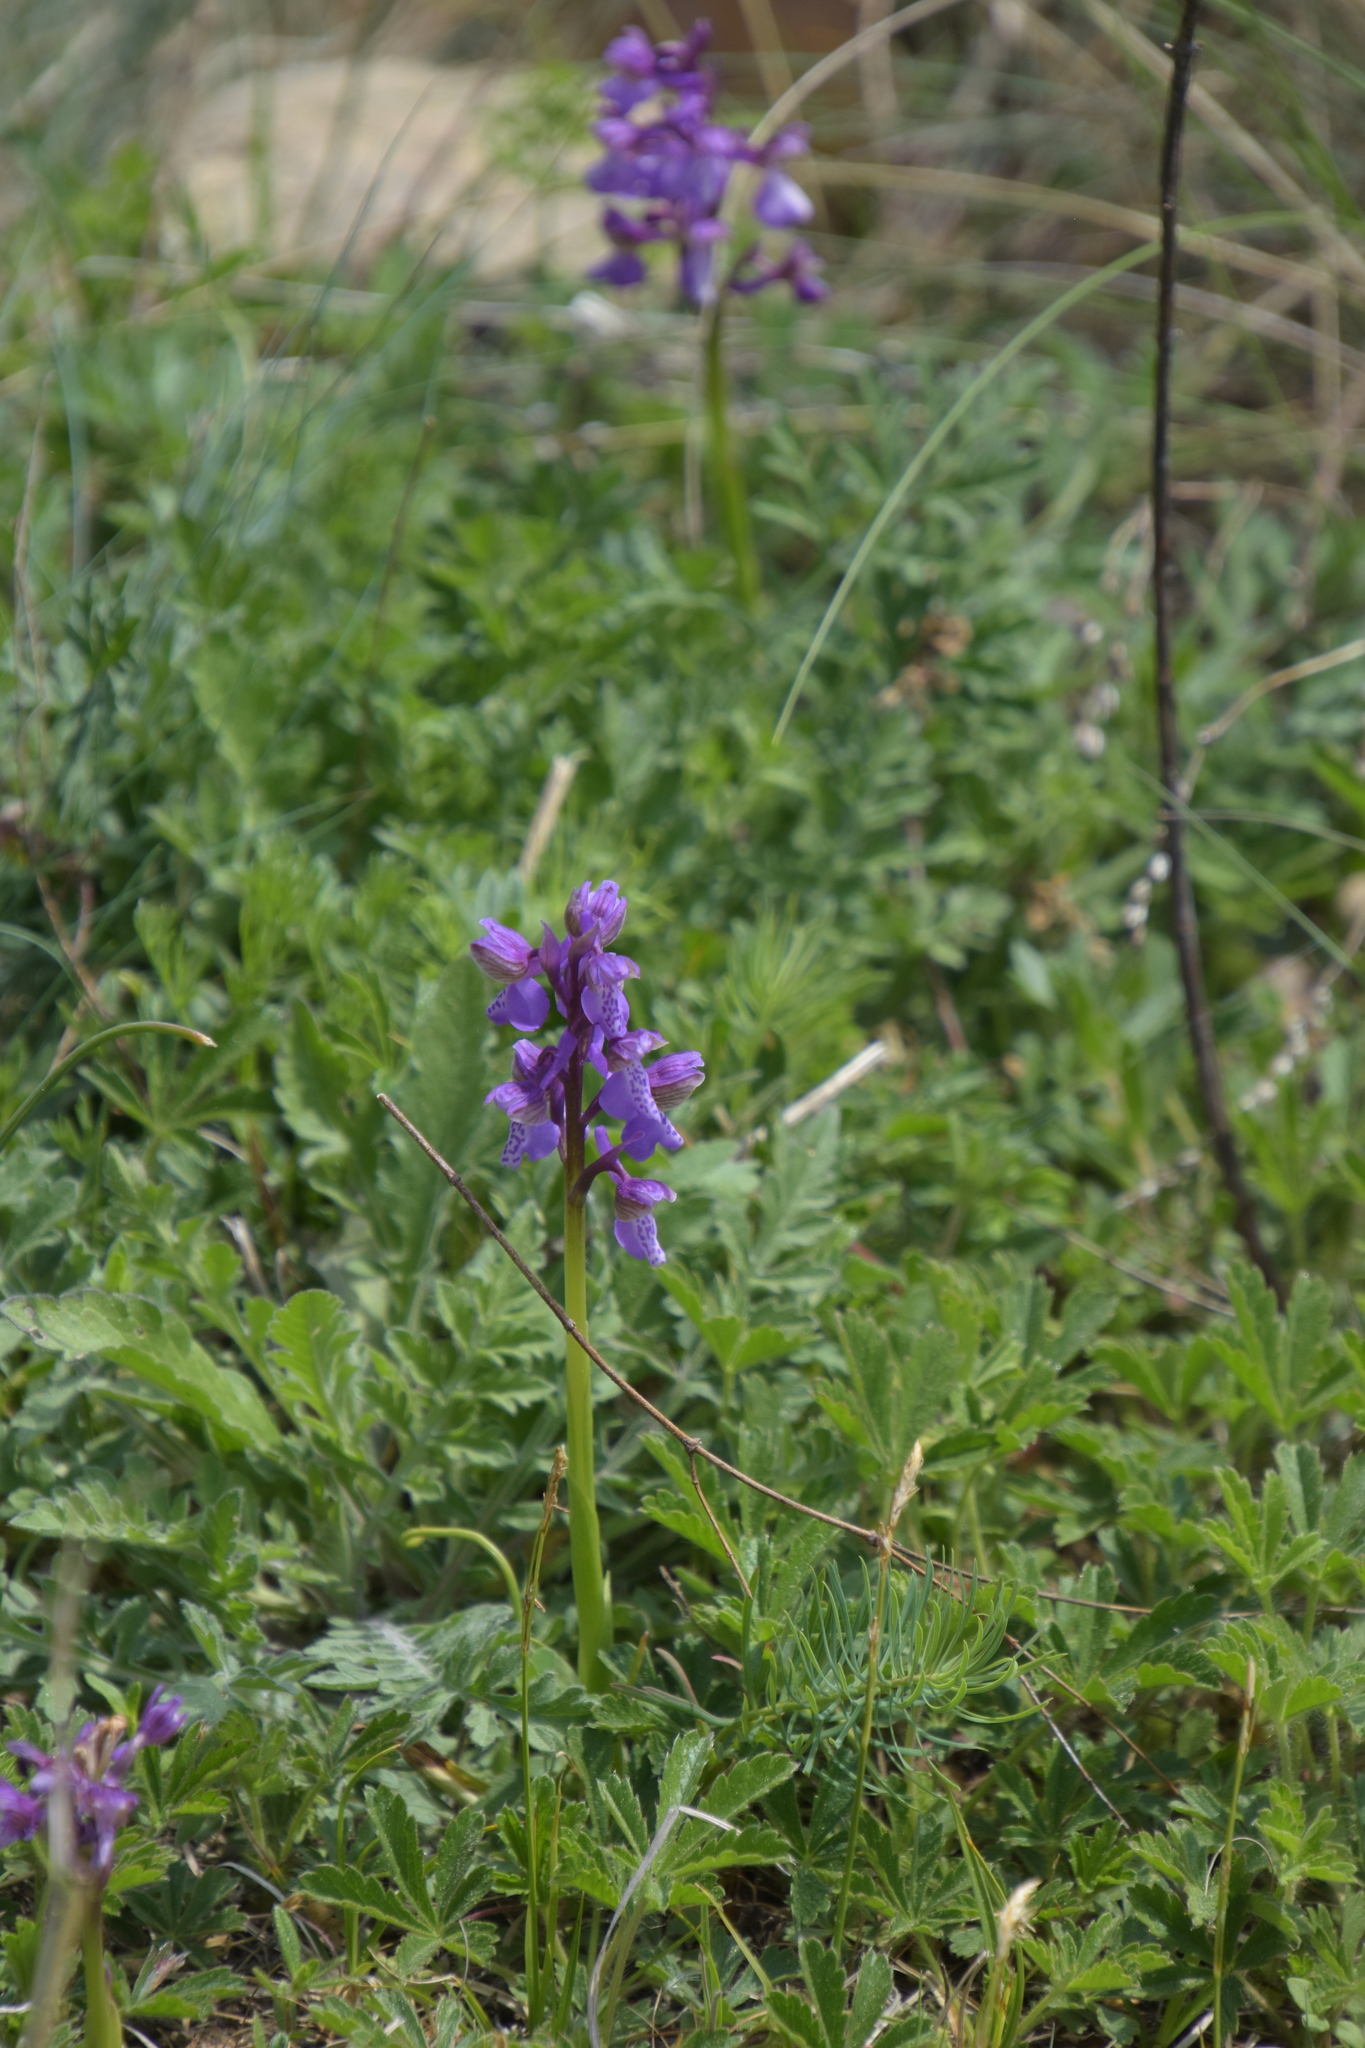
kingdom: Plantae
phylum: Tracheophyta
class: Liliopsida
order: Asparagales
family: Orchidaceae
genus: Anacamptis
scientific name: Anacamptis morio
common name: Green-winged orchid
